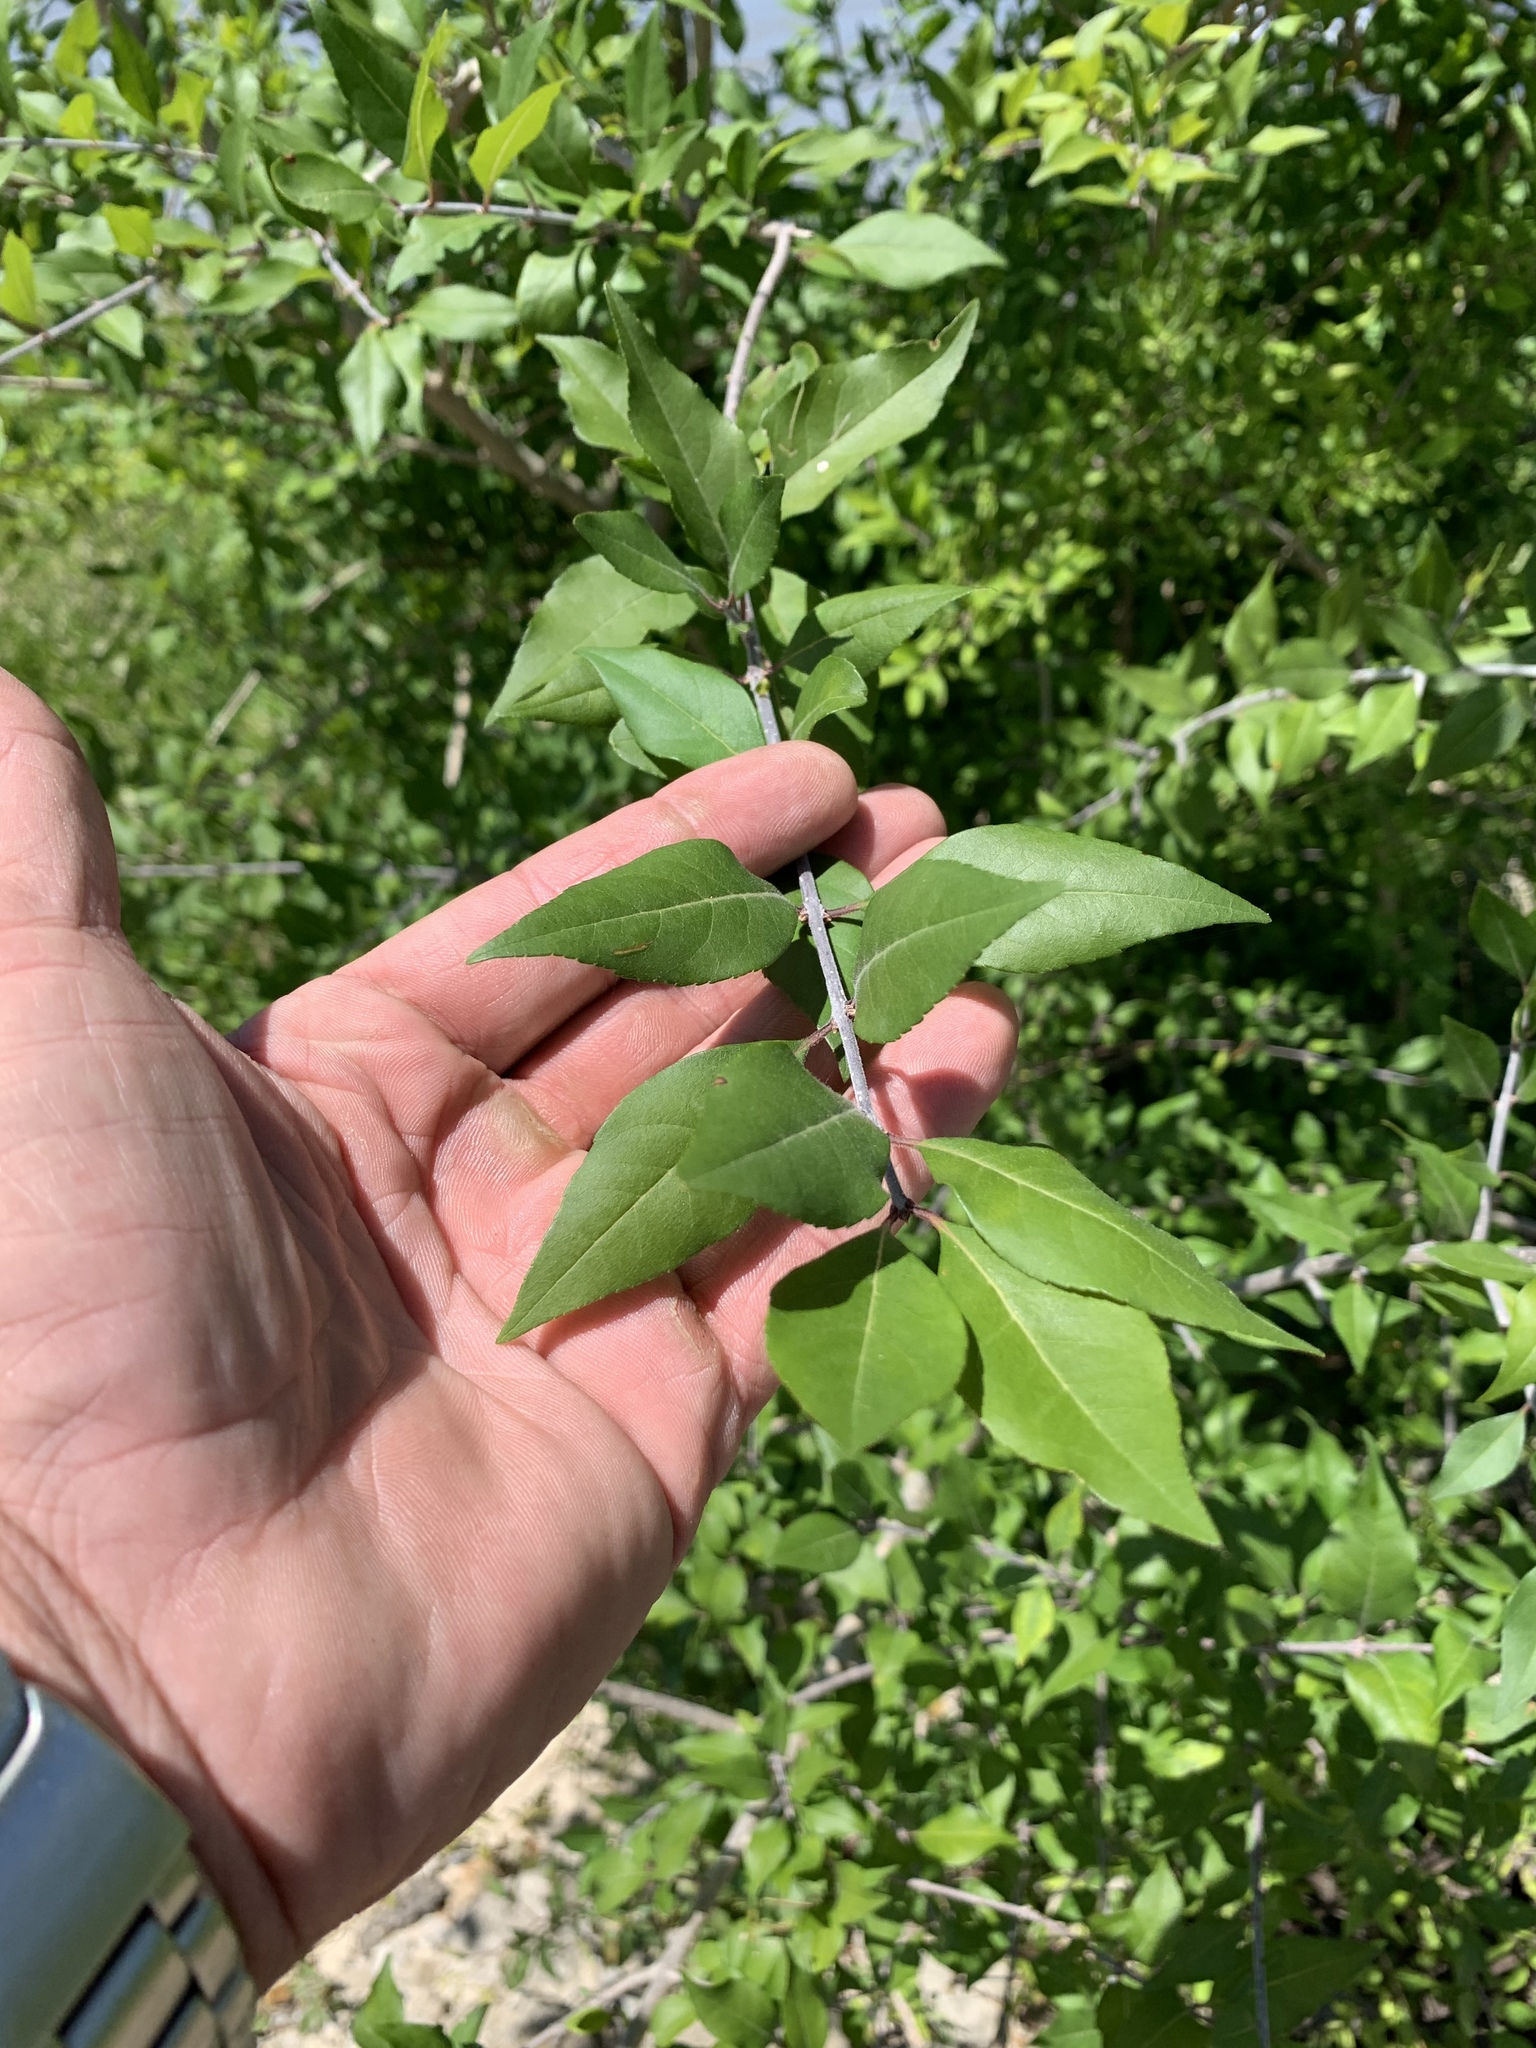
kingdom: Plantae
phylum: Tracheophyta
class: Magnoliopsida
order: Lamiales
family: Oleaceae
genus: Forestiera
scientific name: Forestiera acuminata
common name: Swamp-privet
